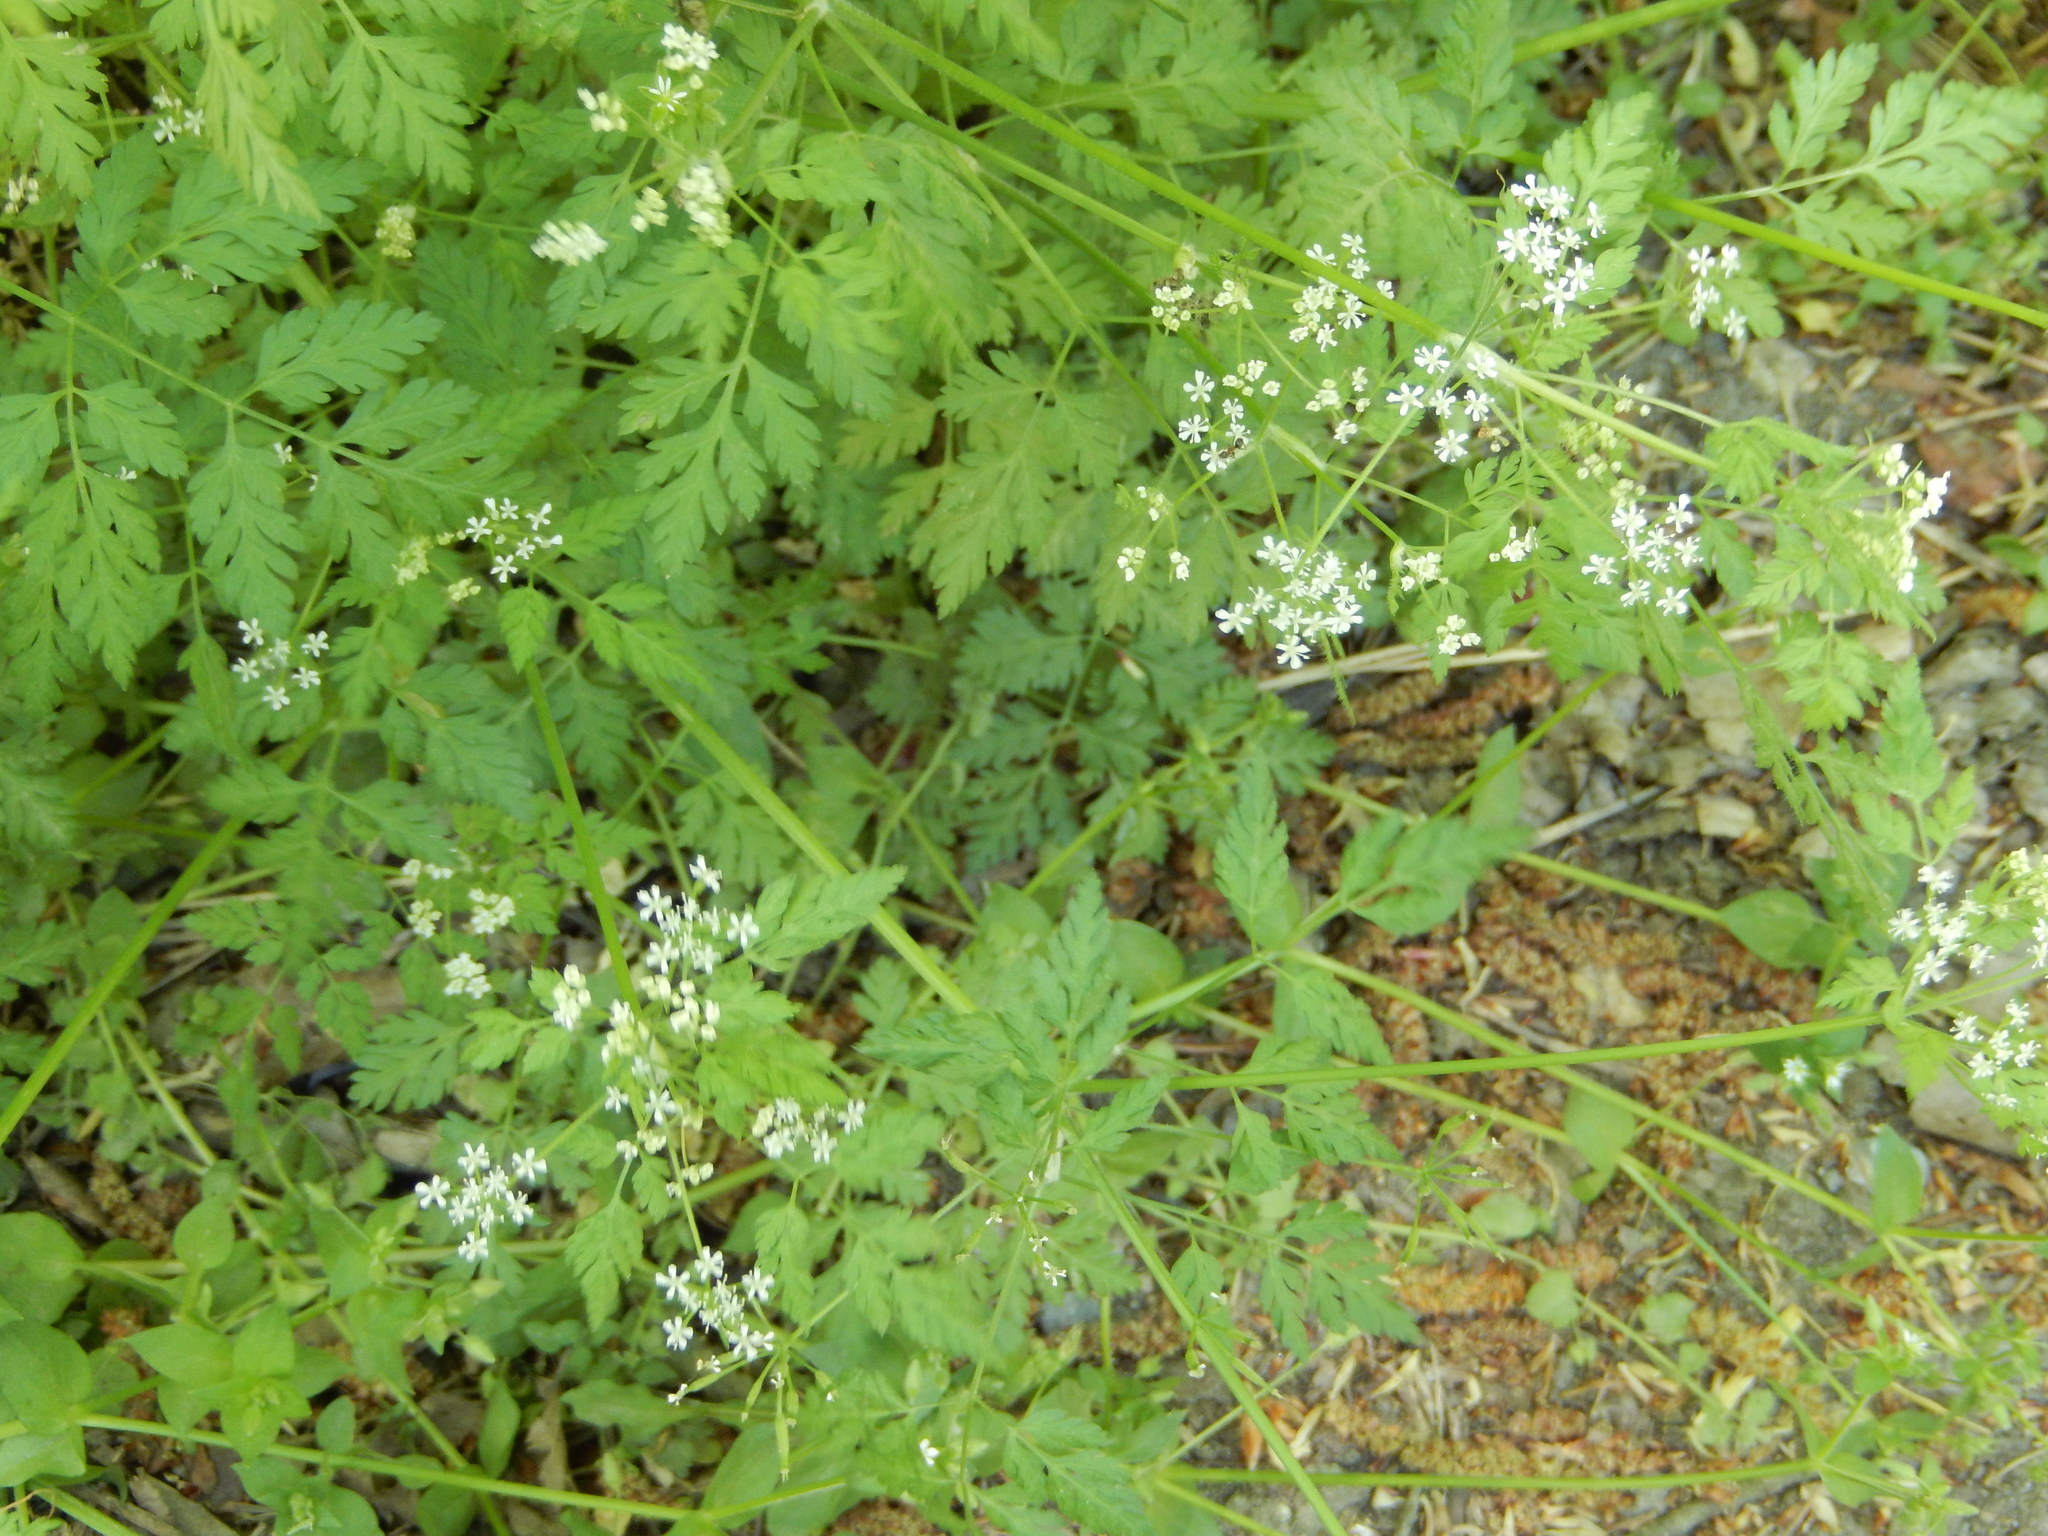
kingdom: Plantae
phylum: Tracheophyta
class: Magnoliopsida
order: Apiales
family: Apiaceae
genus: Anthriscus
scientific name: Anthriscus cerefolium
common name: Garden chervil
